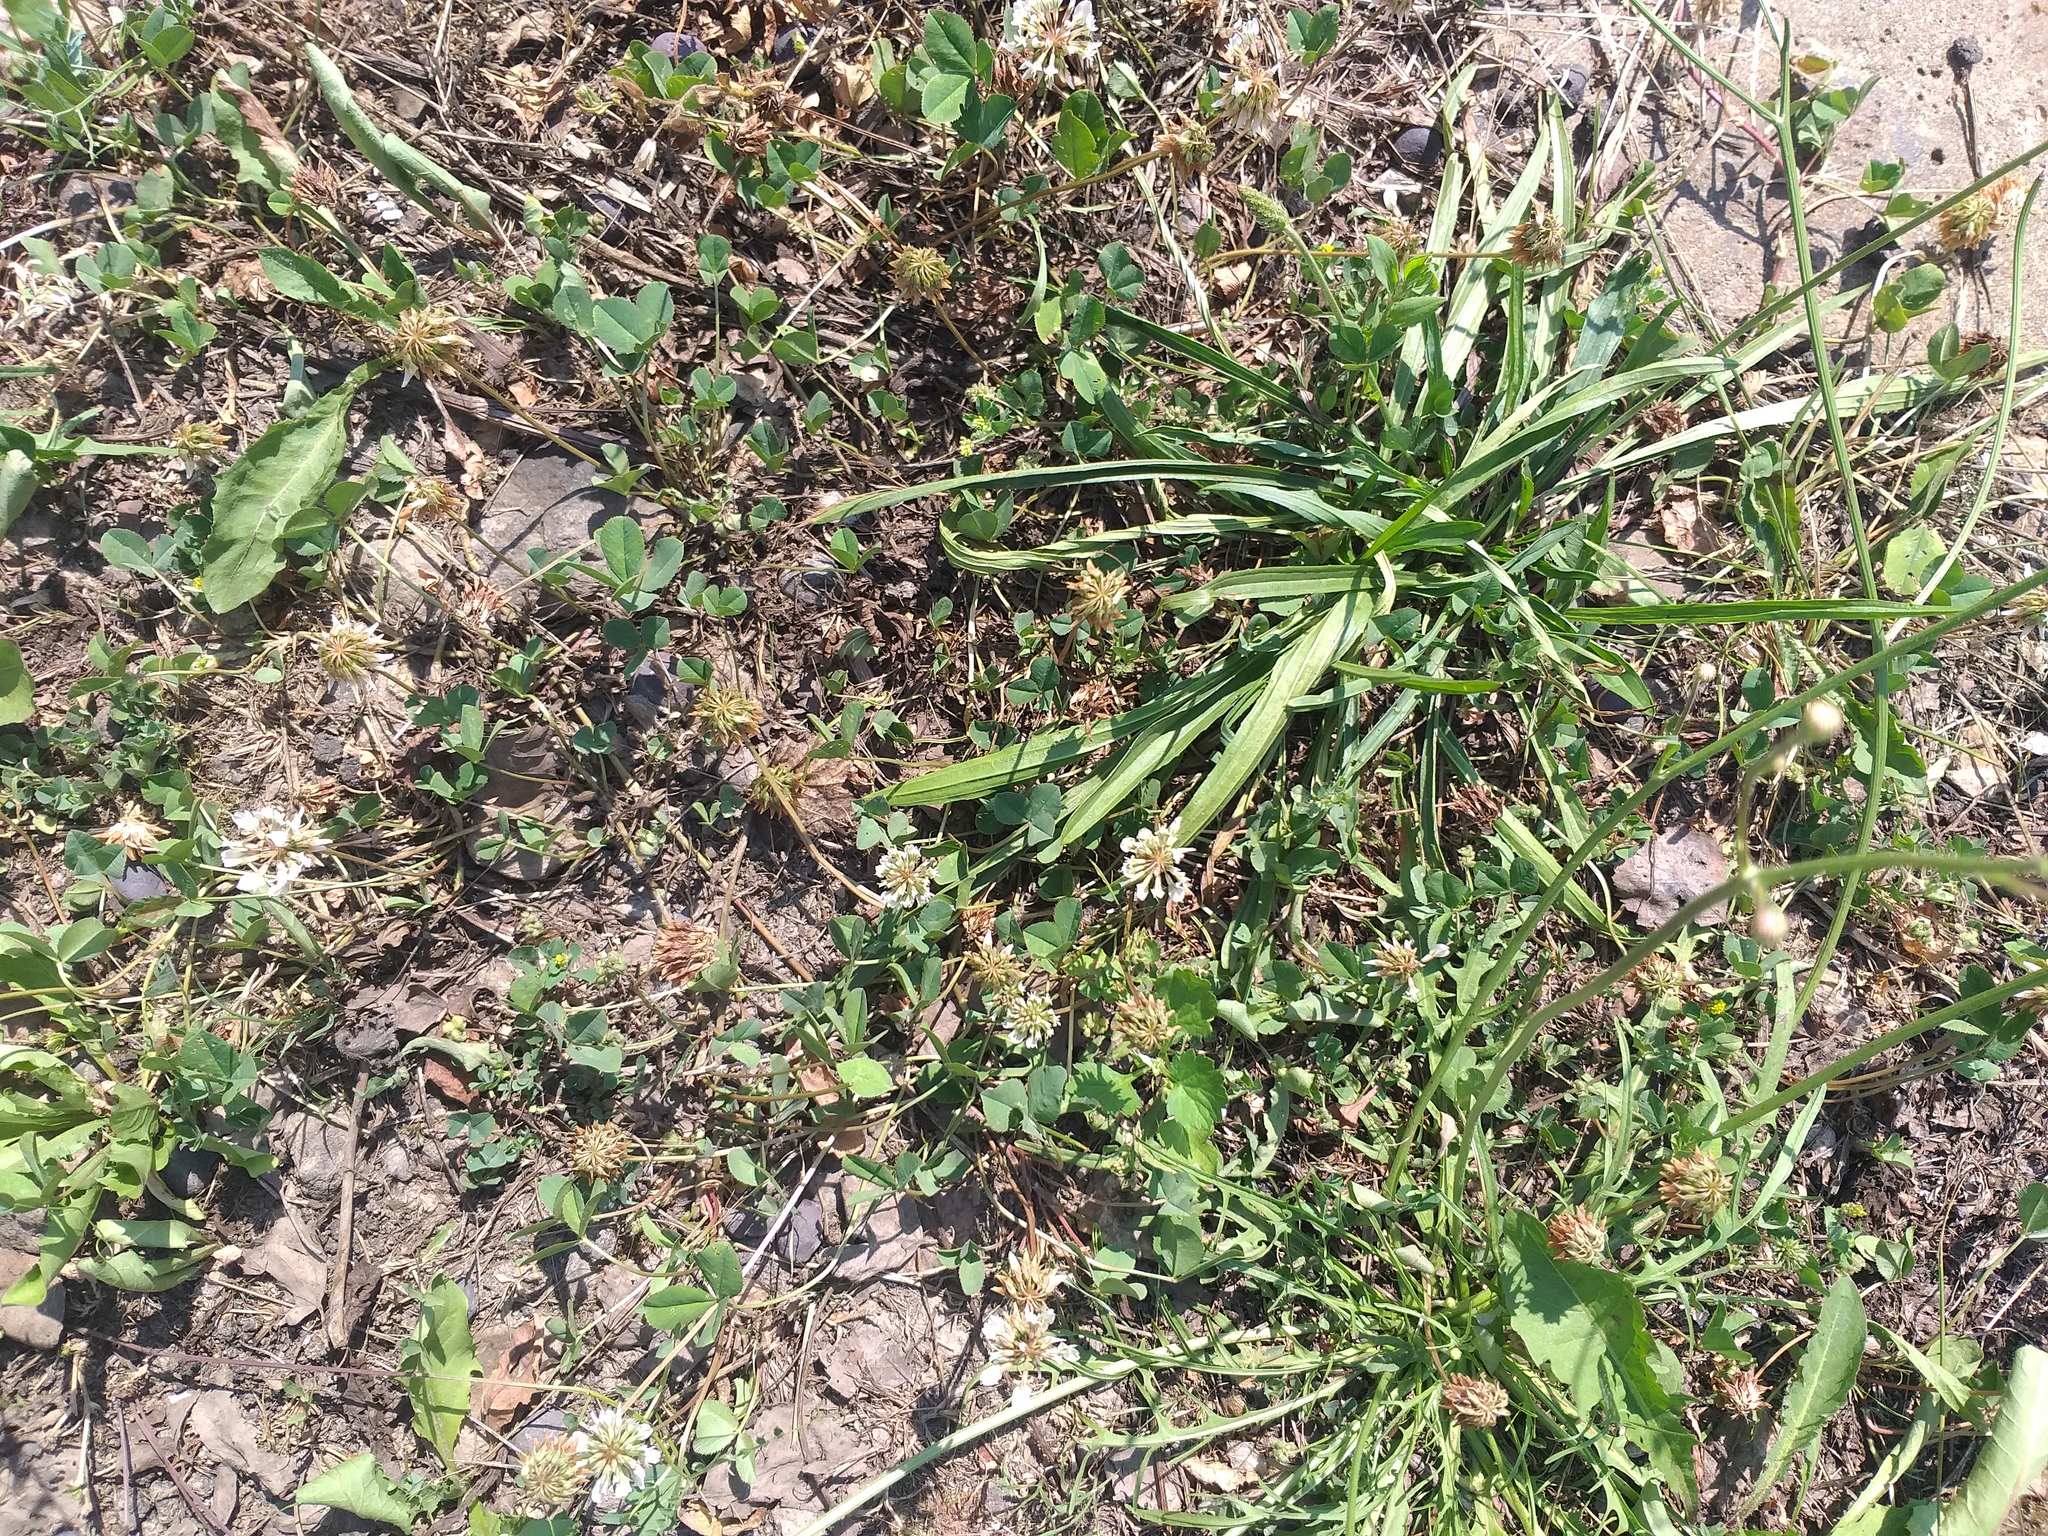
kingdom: Plantae
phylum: Tracheophyta
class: Magnoliopsida
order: Lamiales
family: Plantaginaceae
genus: Plantago
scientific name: Plantago lanceolata
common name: Ribwort plantain
